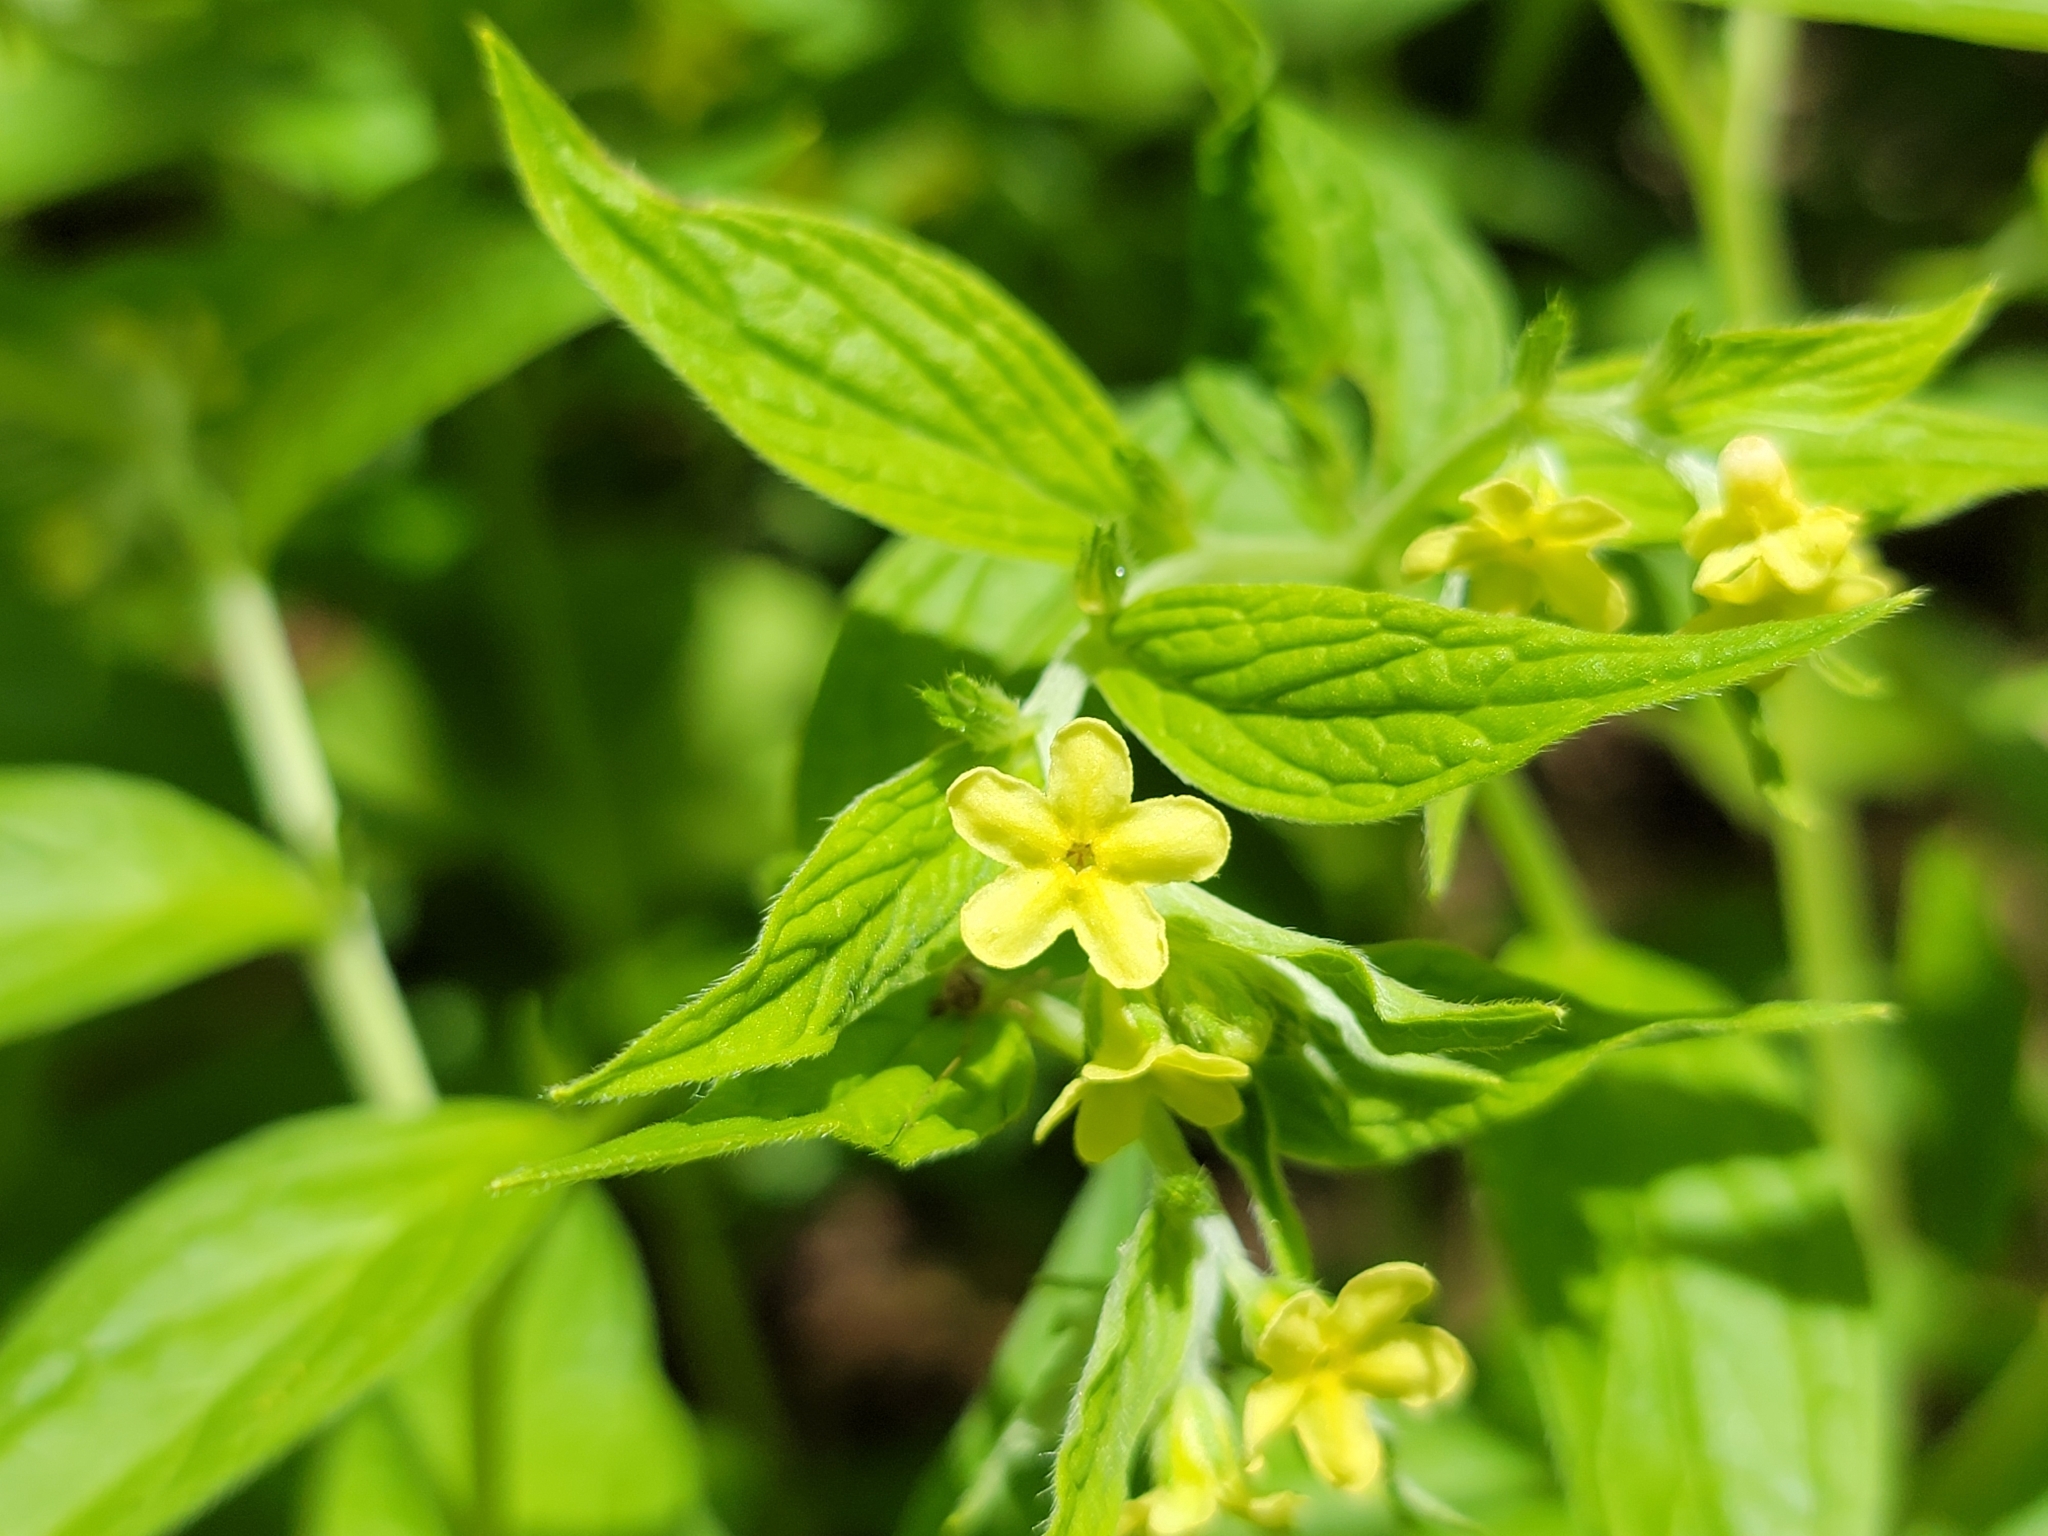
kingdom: Plantae
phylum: Tracheophyta
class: Magnoliopsida
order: Boraginales
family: Boraginaceae
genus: Lithospermum
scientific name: Lithospermum latifolium
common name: American gromwell
